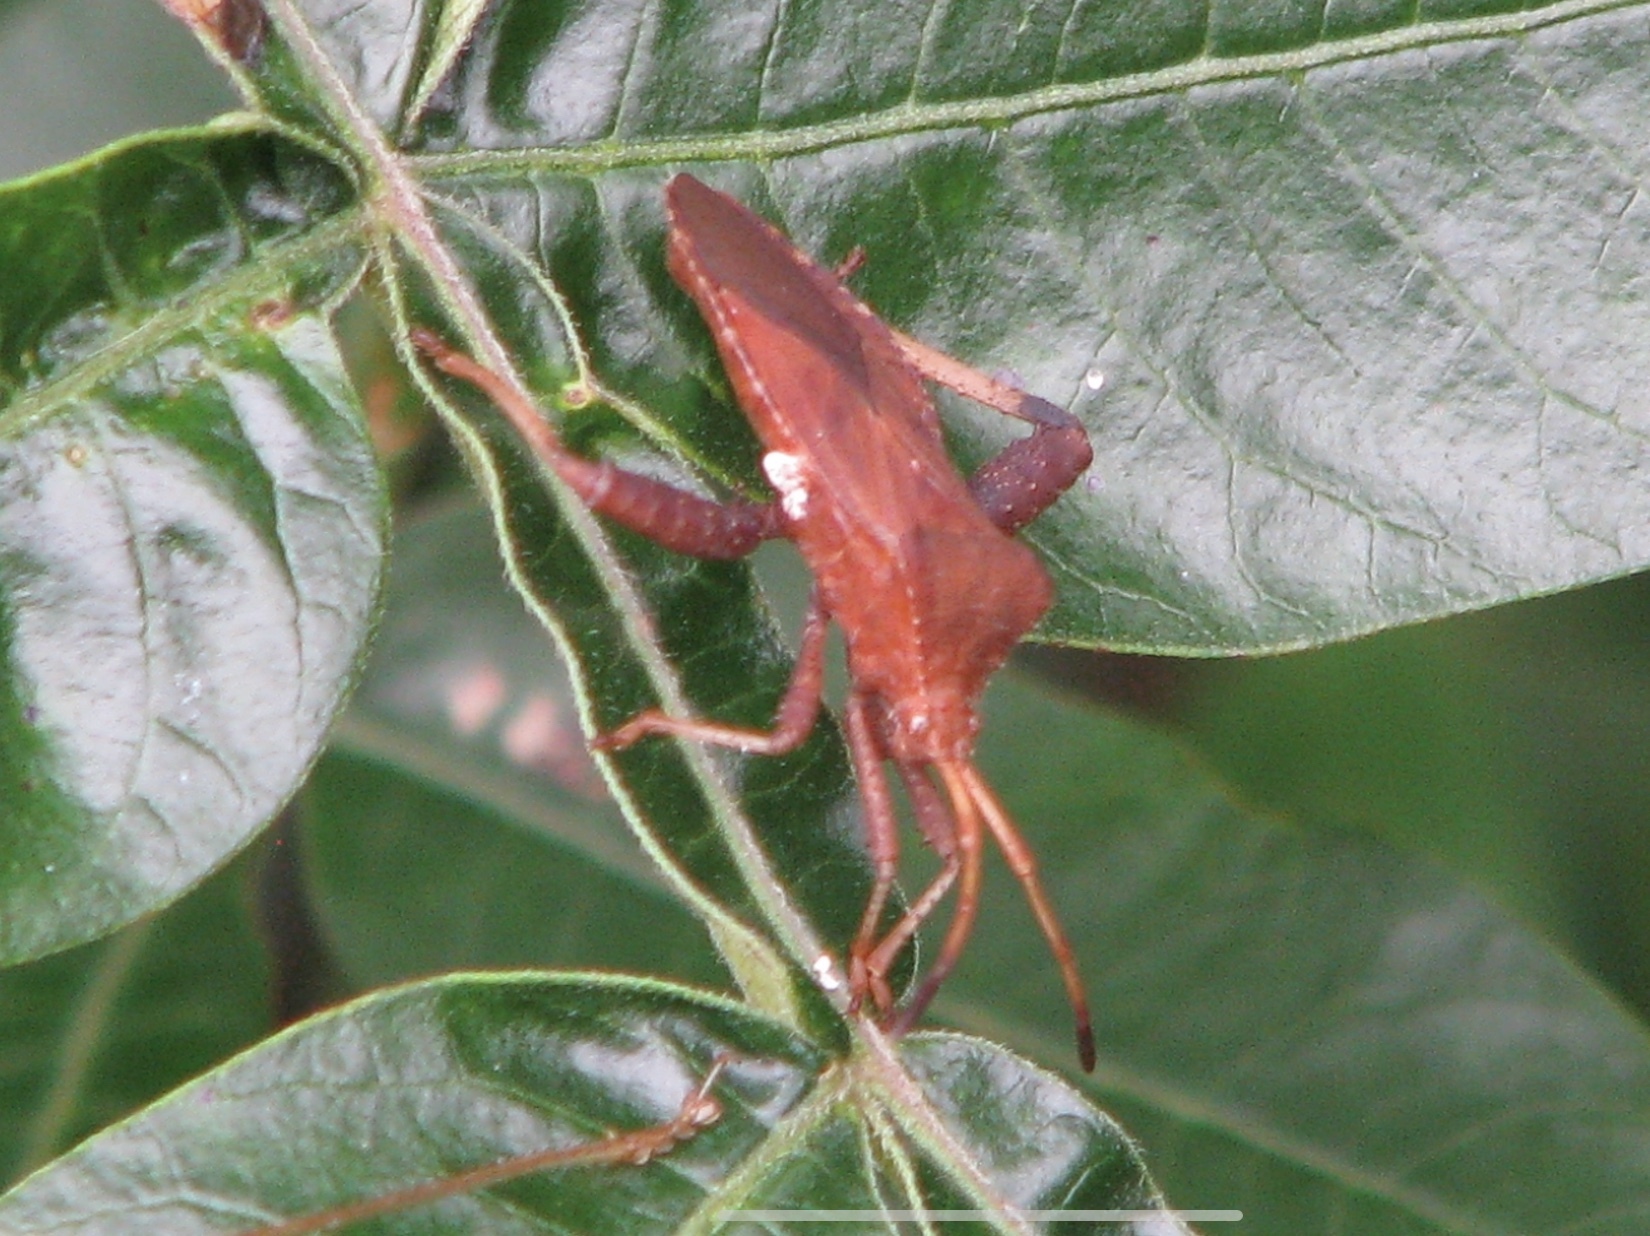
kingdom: Animalia
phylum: Arthropoda
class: Insecta
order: Hemiptera
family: Coreidae
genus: Euthochtha
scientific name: Euthochtha galeator
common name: Helmeted squash bug
